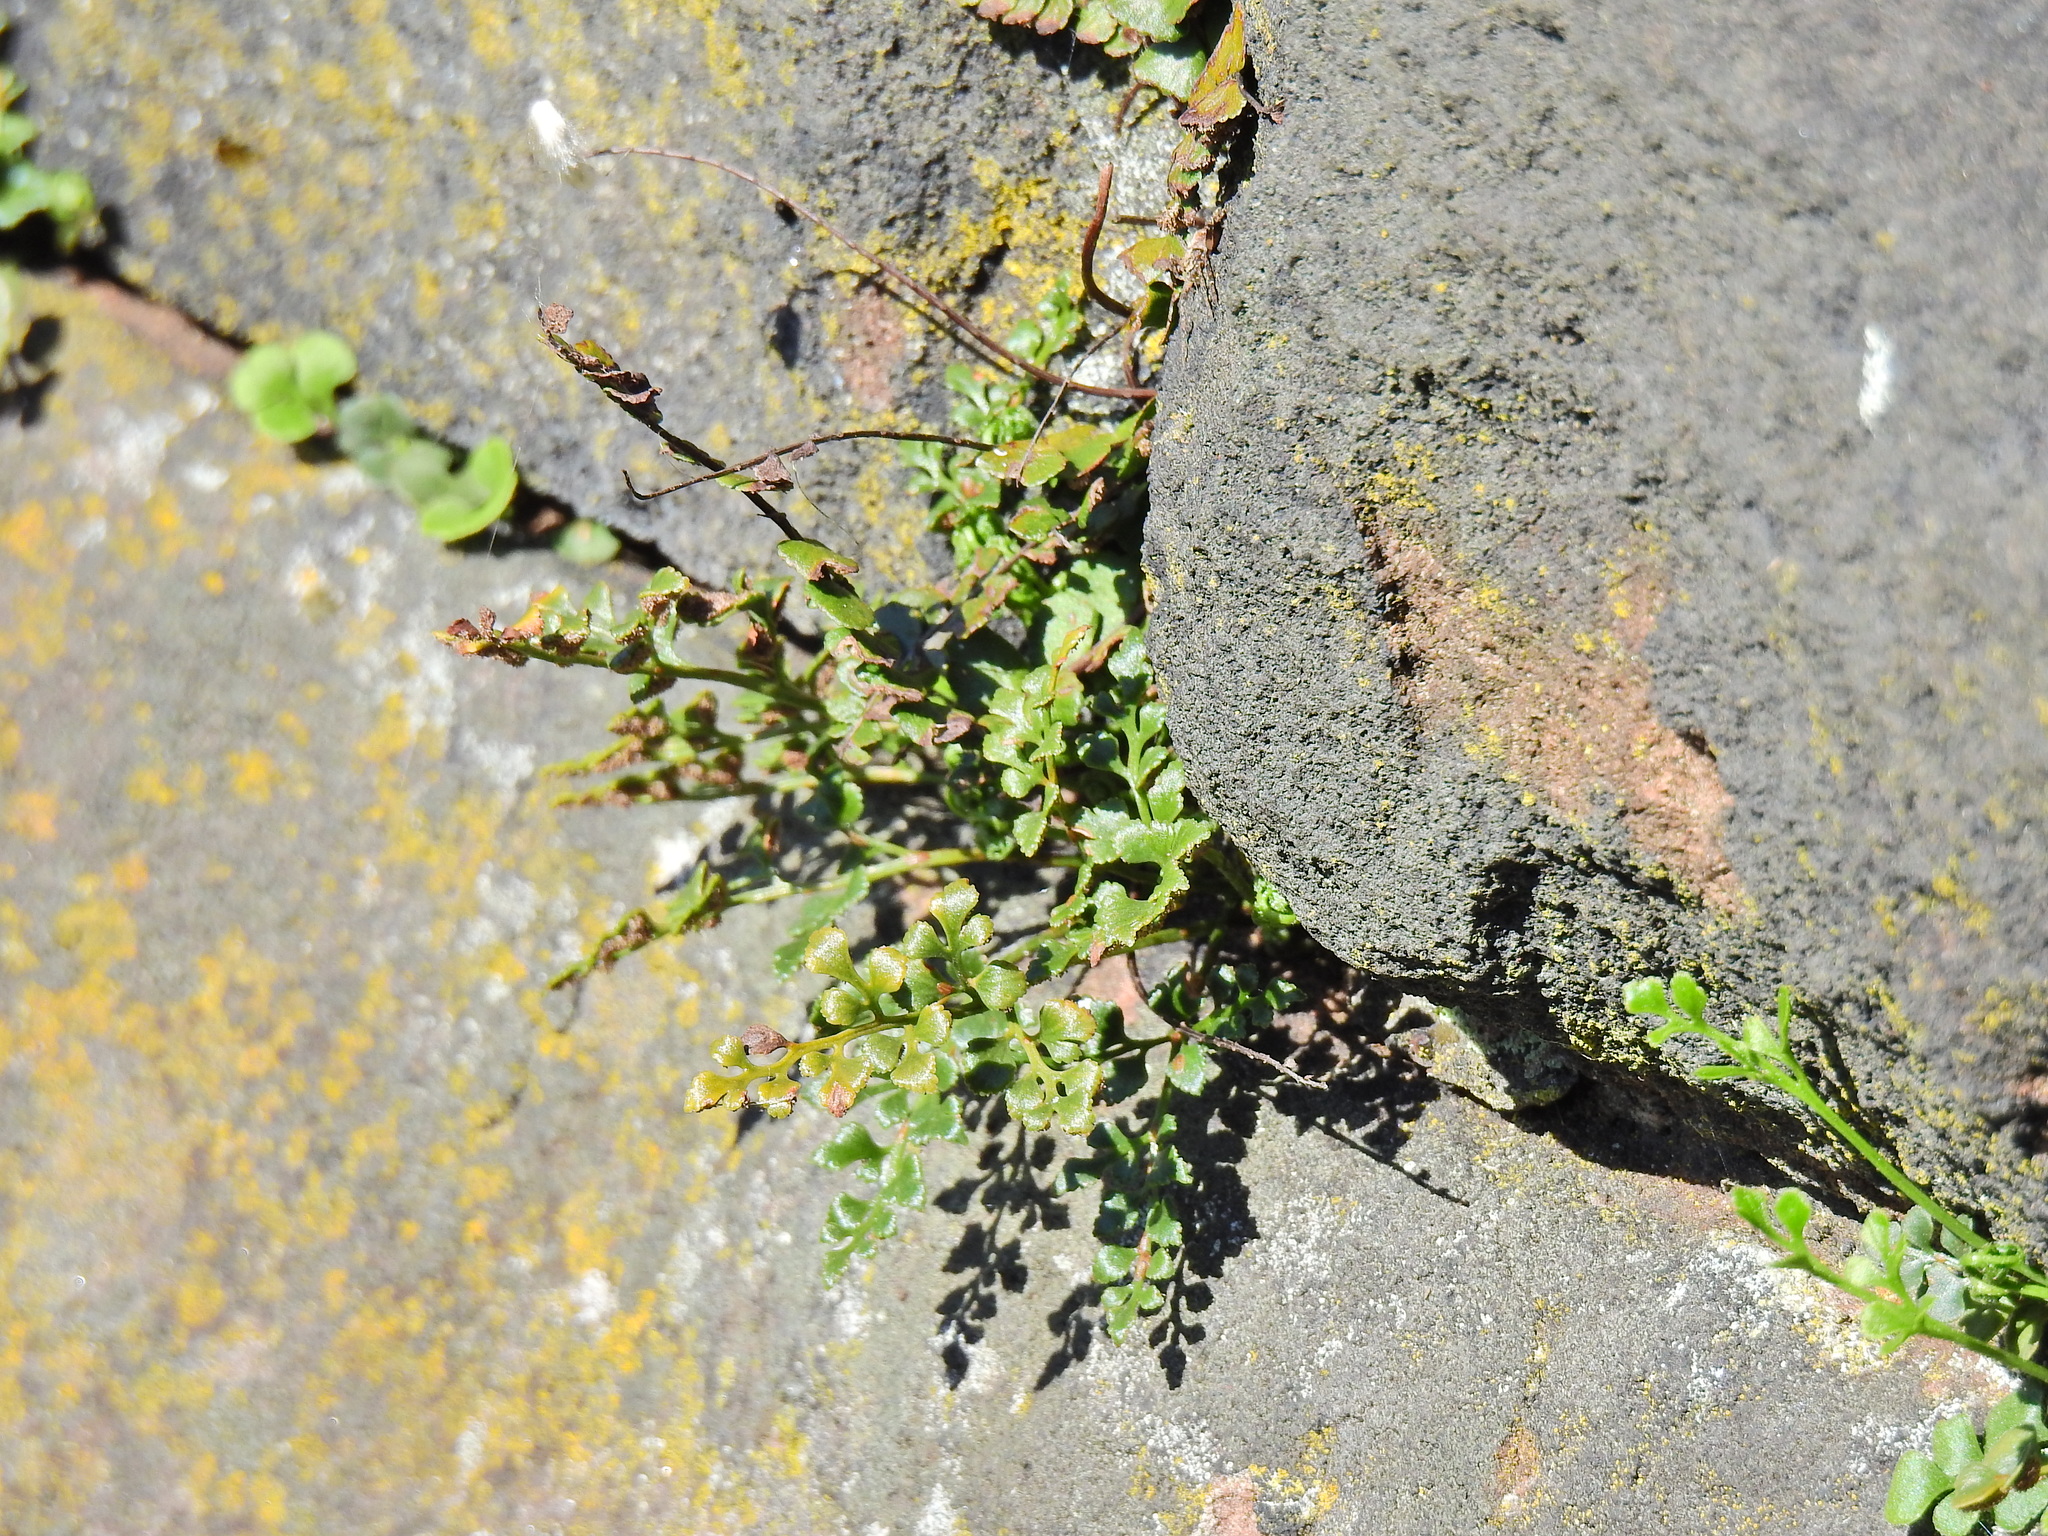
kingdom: Plantae
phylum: Tracheophyta
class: Polypodiopsida
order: Polypodiales
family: Aspleniaceae
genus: Asplenium
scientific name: Asplenium ruta-muraria
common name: Wall-rue
